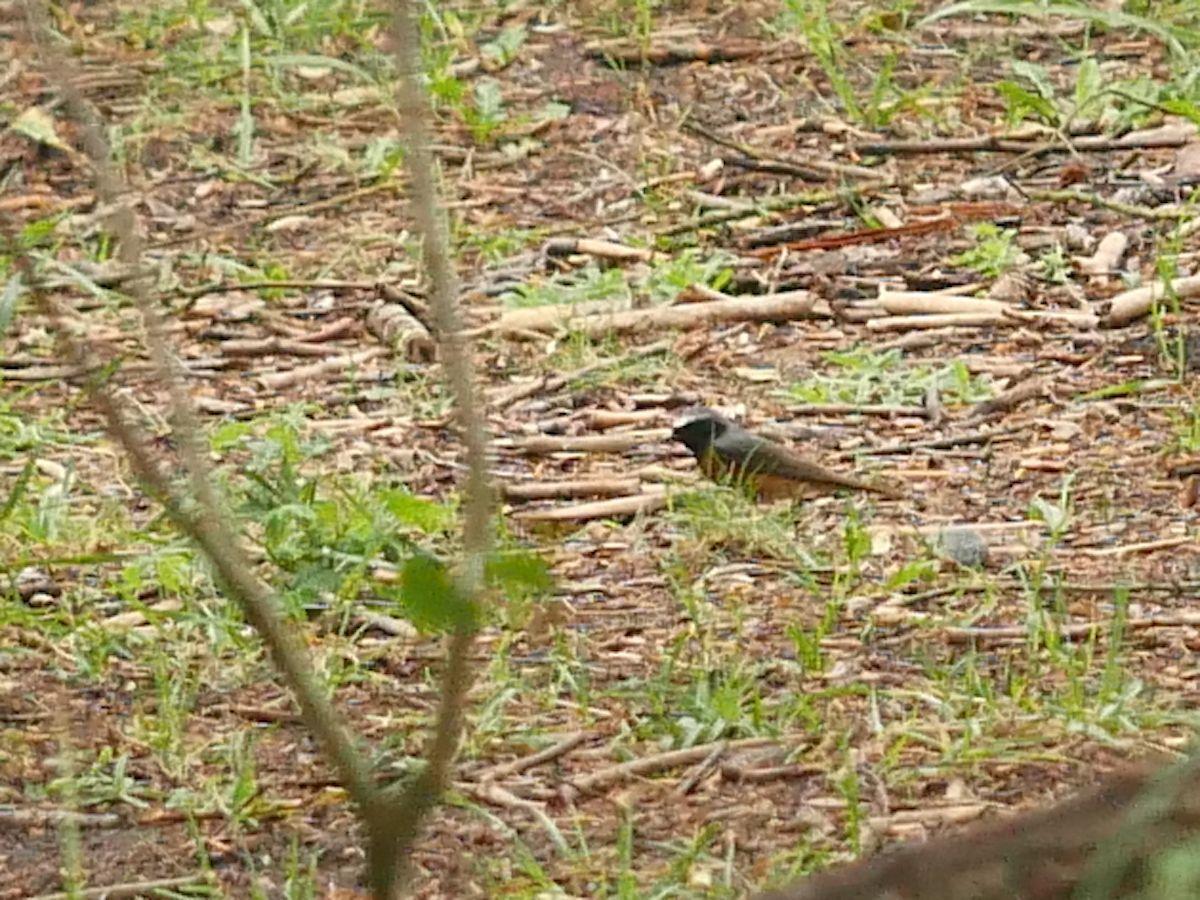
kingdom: Animalia
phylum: Chordata
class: Aves
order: Passeriformes
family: Muscicapidae
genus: Phoenicurus
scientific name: Phoenicurus phoenicurus
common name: Common redstart
